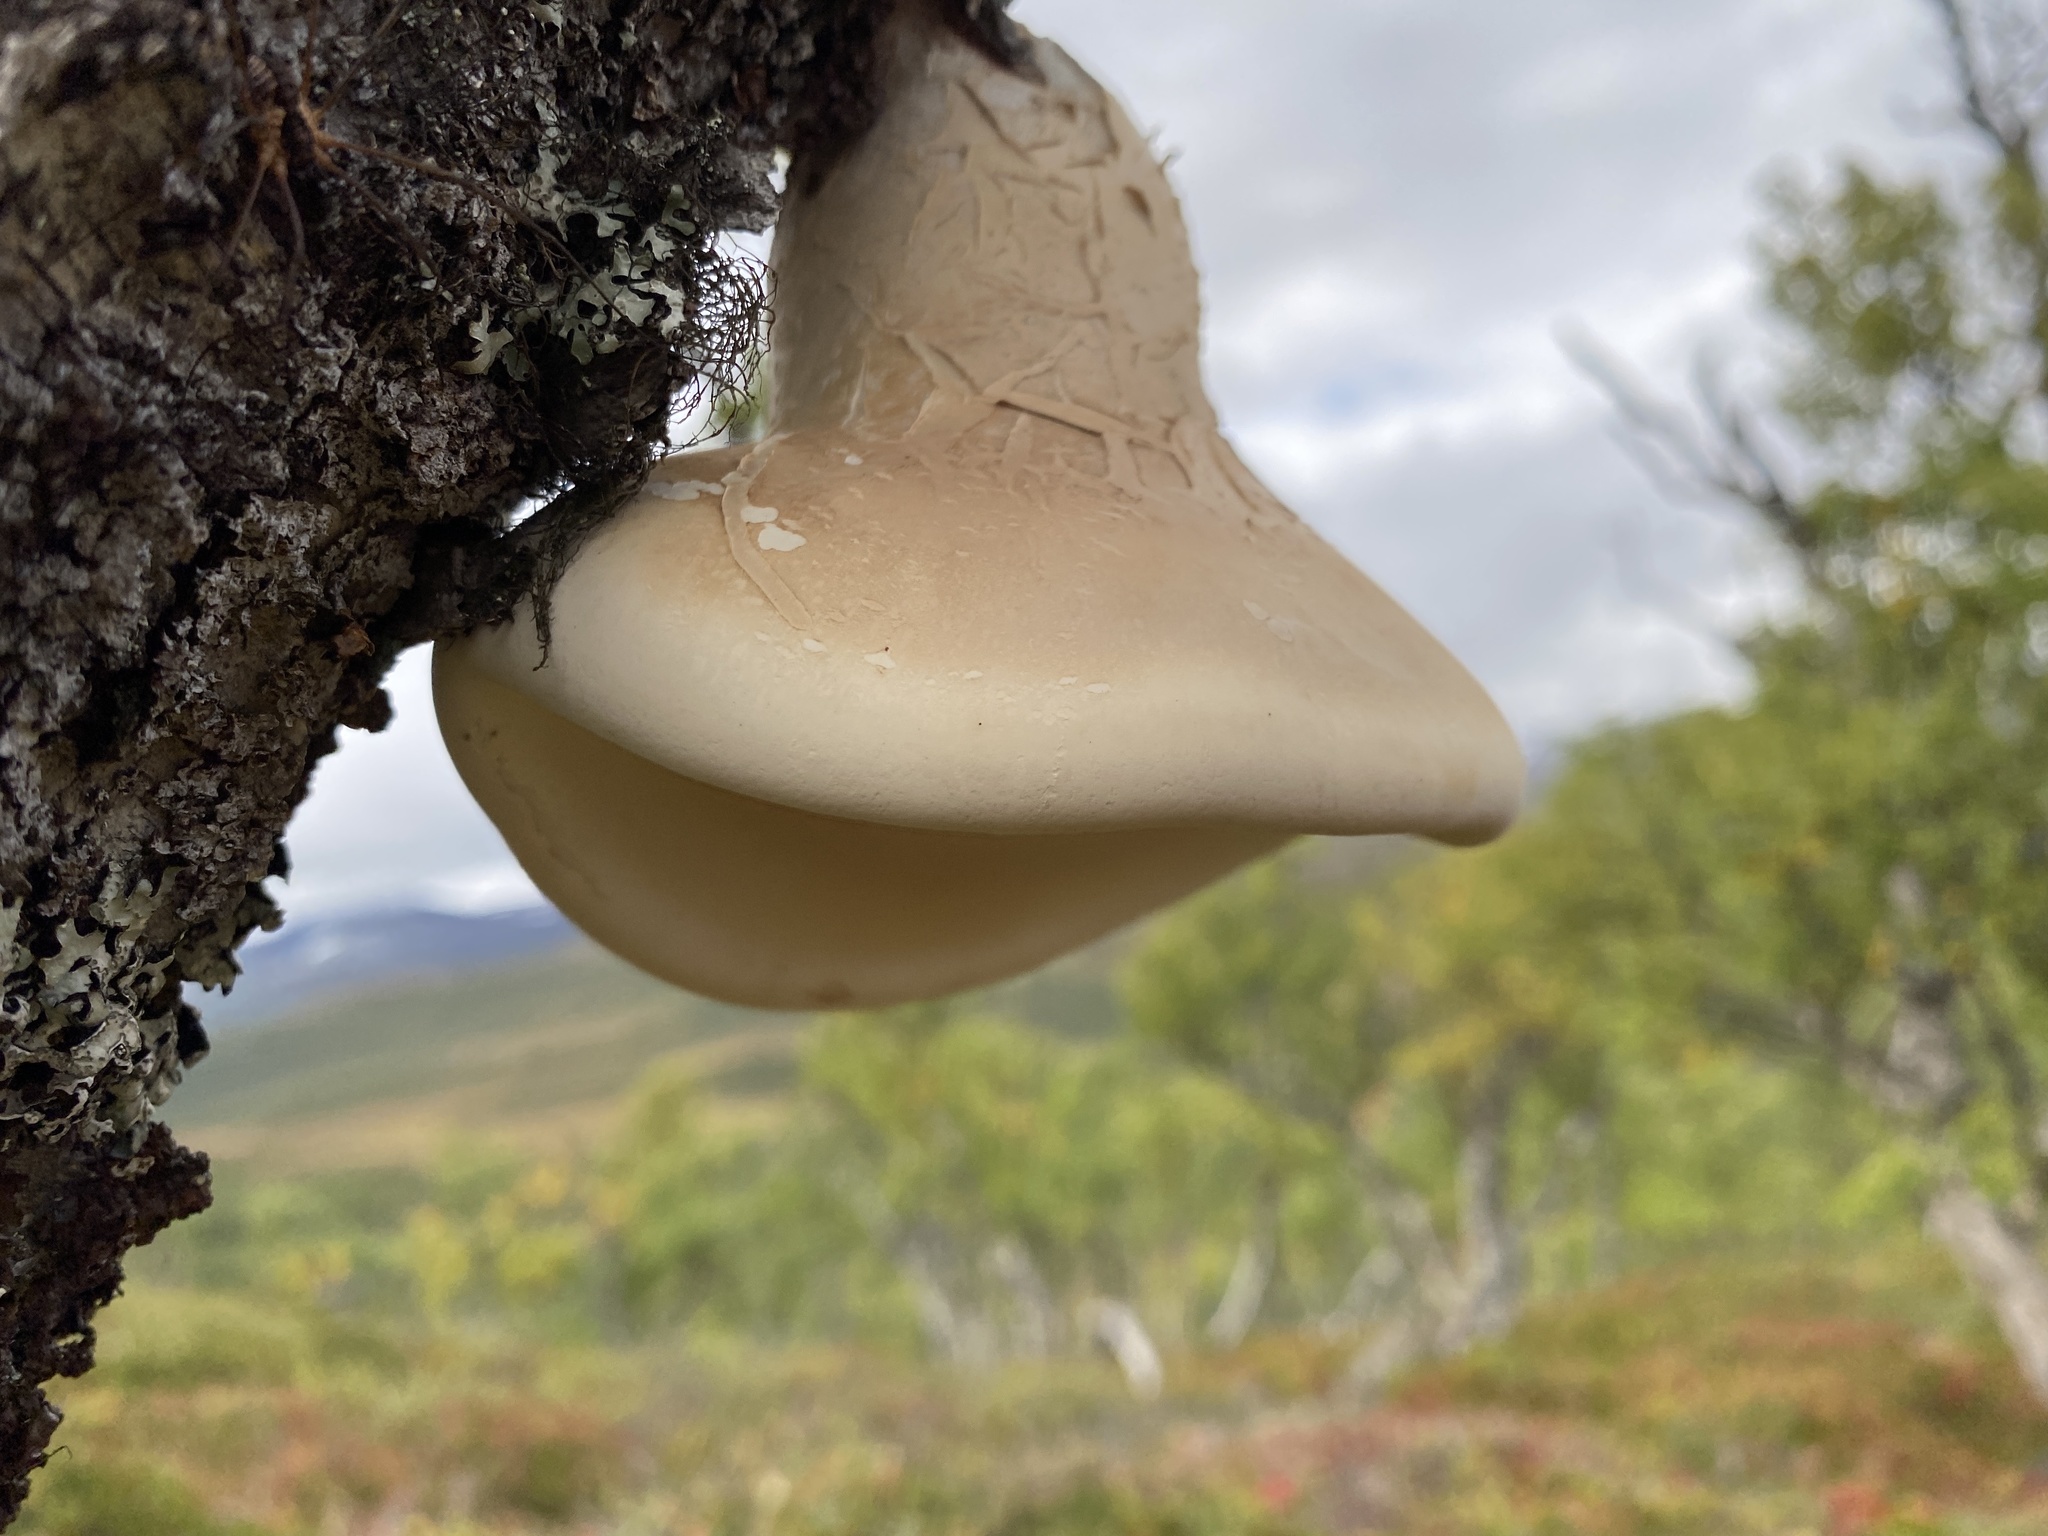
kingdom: Fungi
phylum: Basidiomycota
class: Agaricomycetes
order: Polyporales
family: Fomitopsidaceae
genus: Fomitopsis
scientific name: Fomitopsis betulina
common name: Birch polypore
